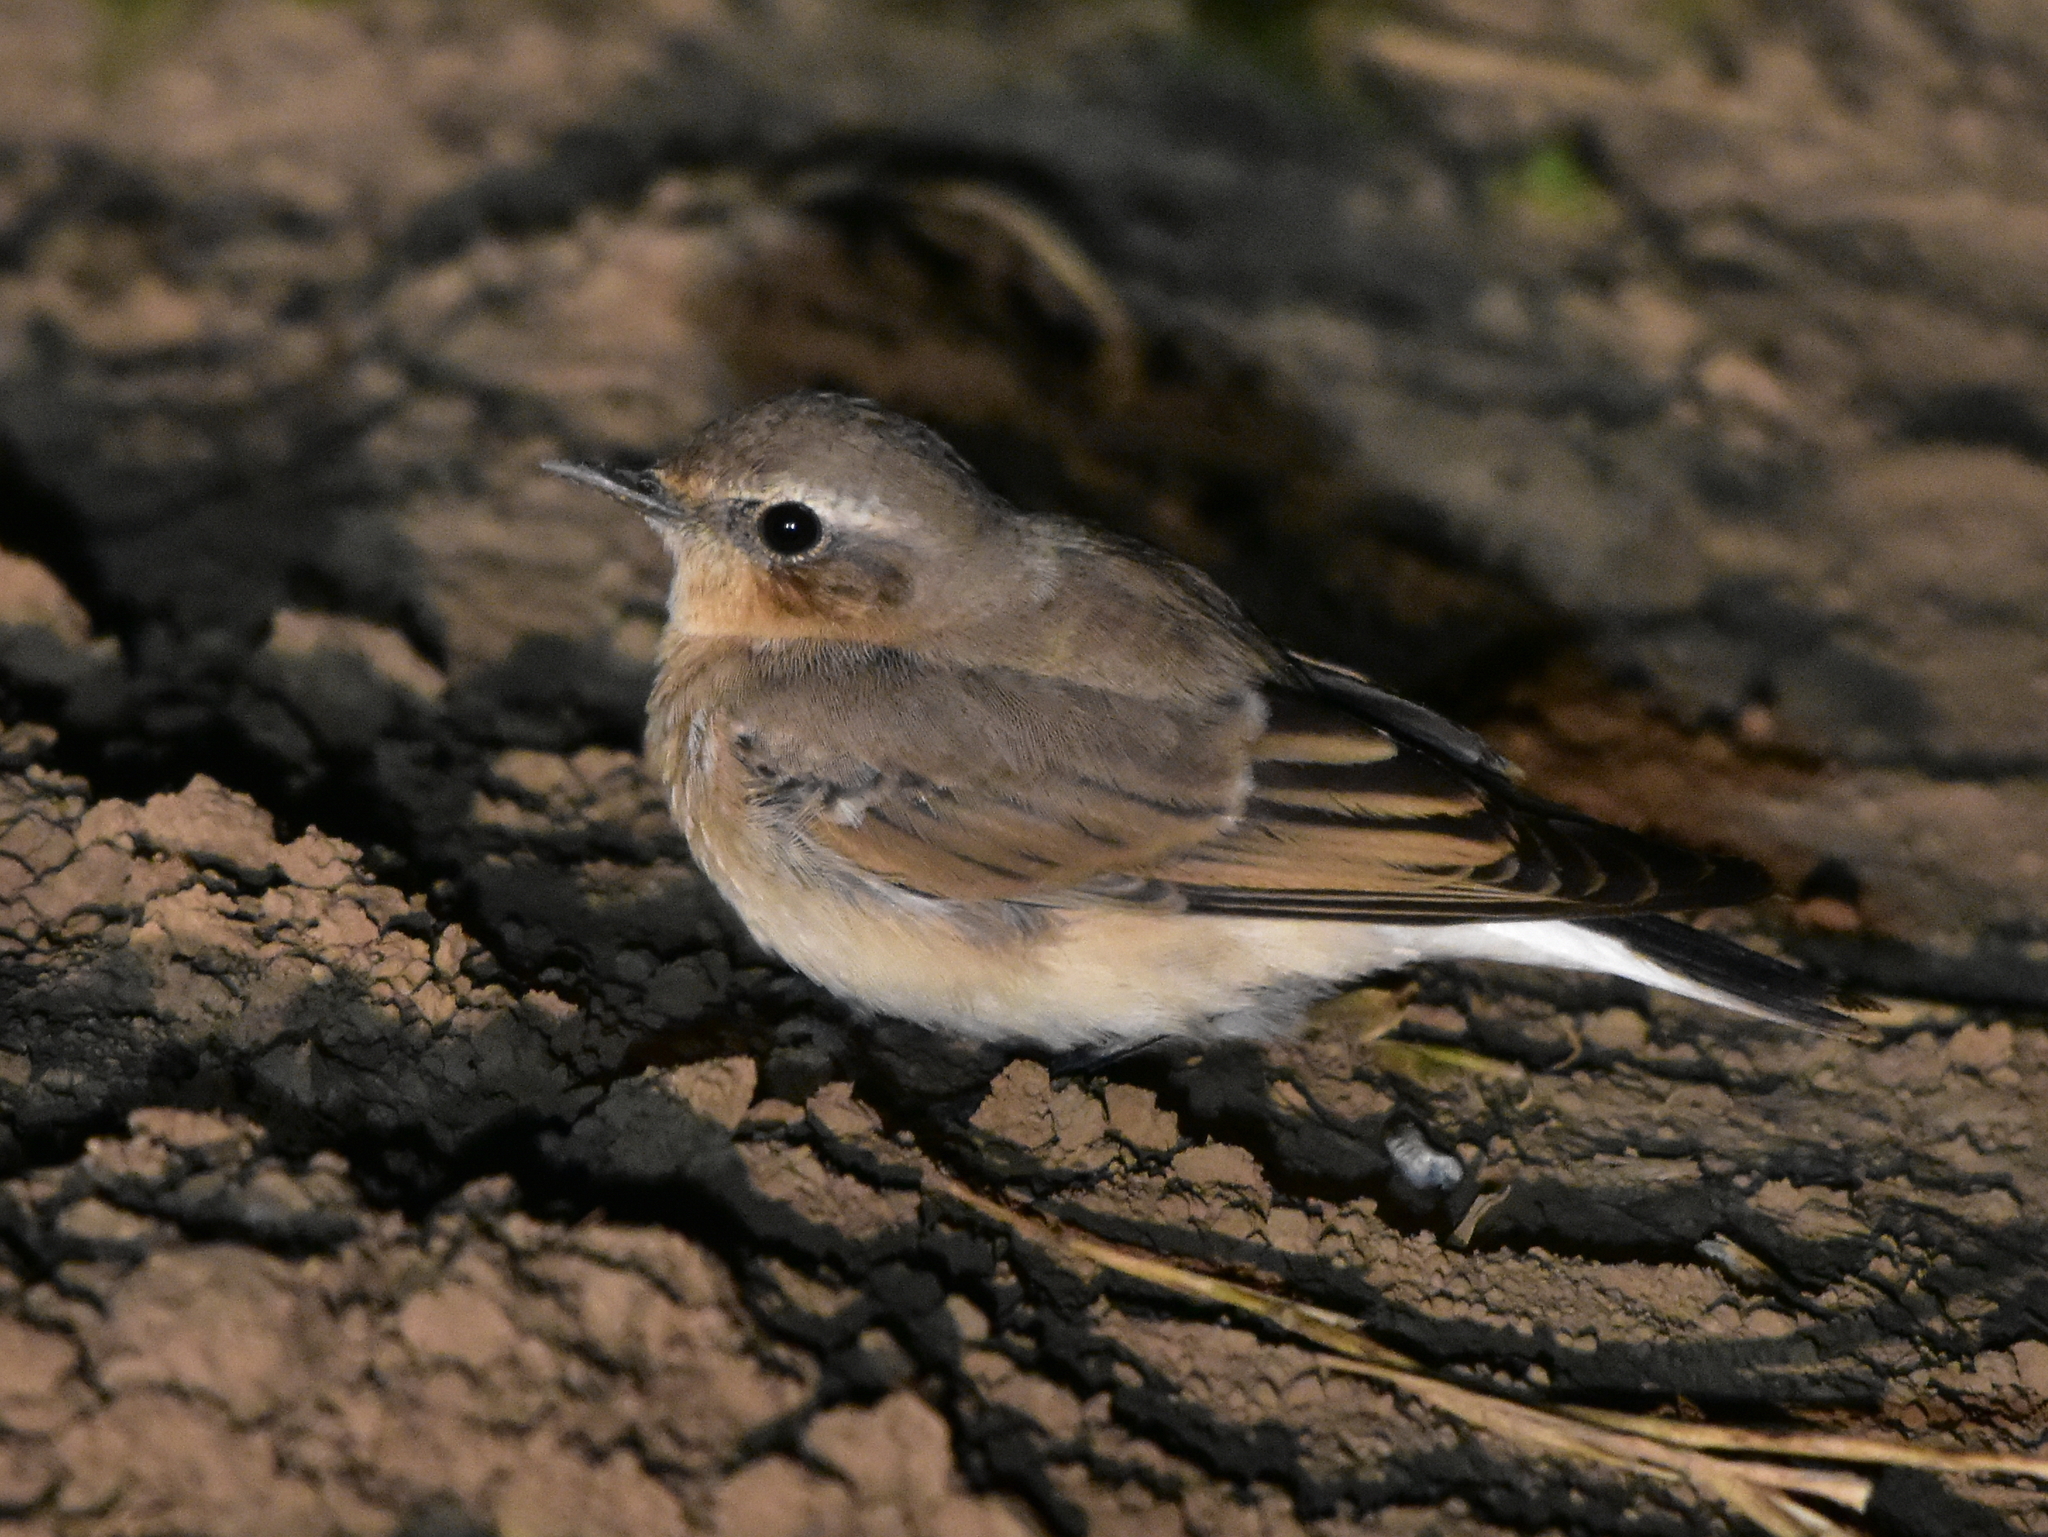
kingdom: Animalia
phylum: Chordata
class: Aves
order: Passeriformes
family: Muscicapidae
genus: Oenanthe
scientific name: Oenanthe oenanthe
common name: Northern wheatear
